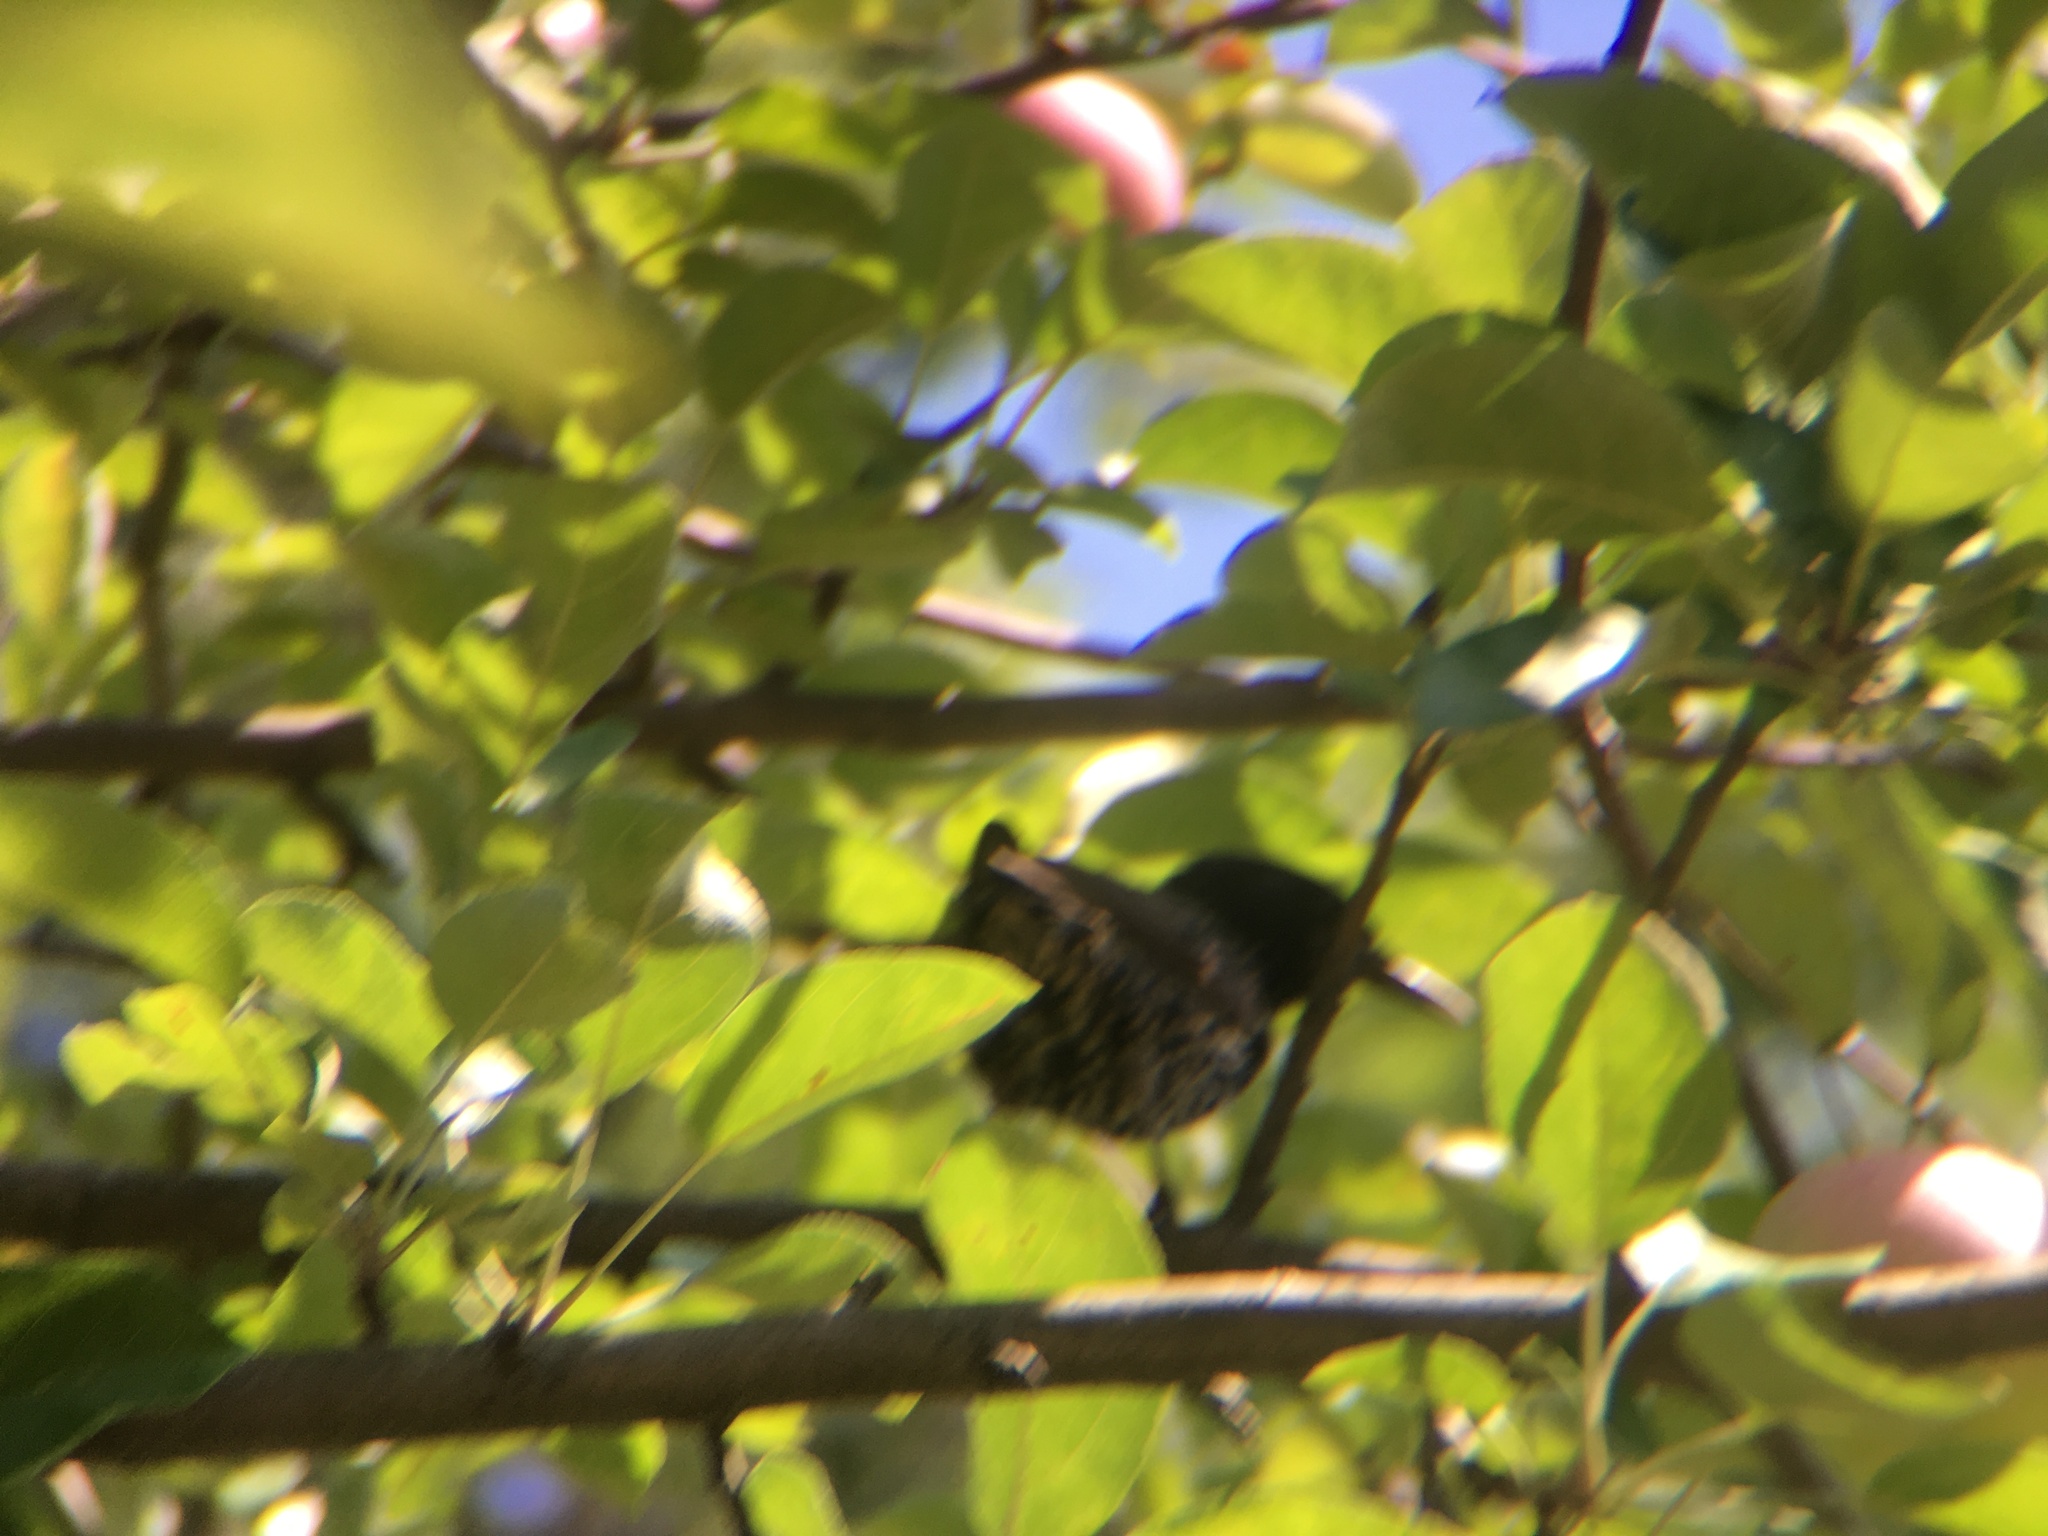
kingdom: Animalia
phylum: Chordata
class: Aves
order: Passeriformes
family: Sturnidae
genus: Sturnus
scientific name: Sturnus vulgaris
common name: Common starling
